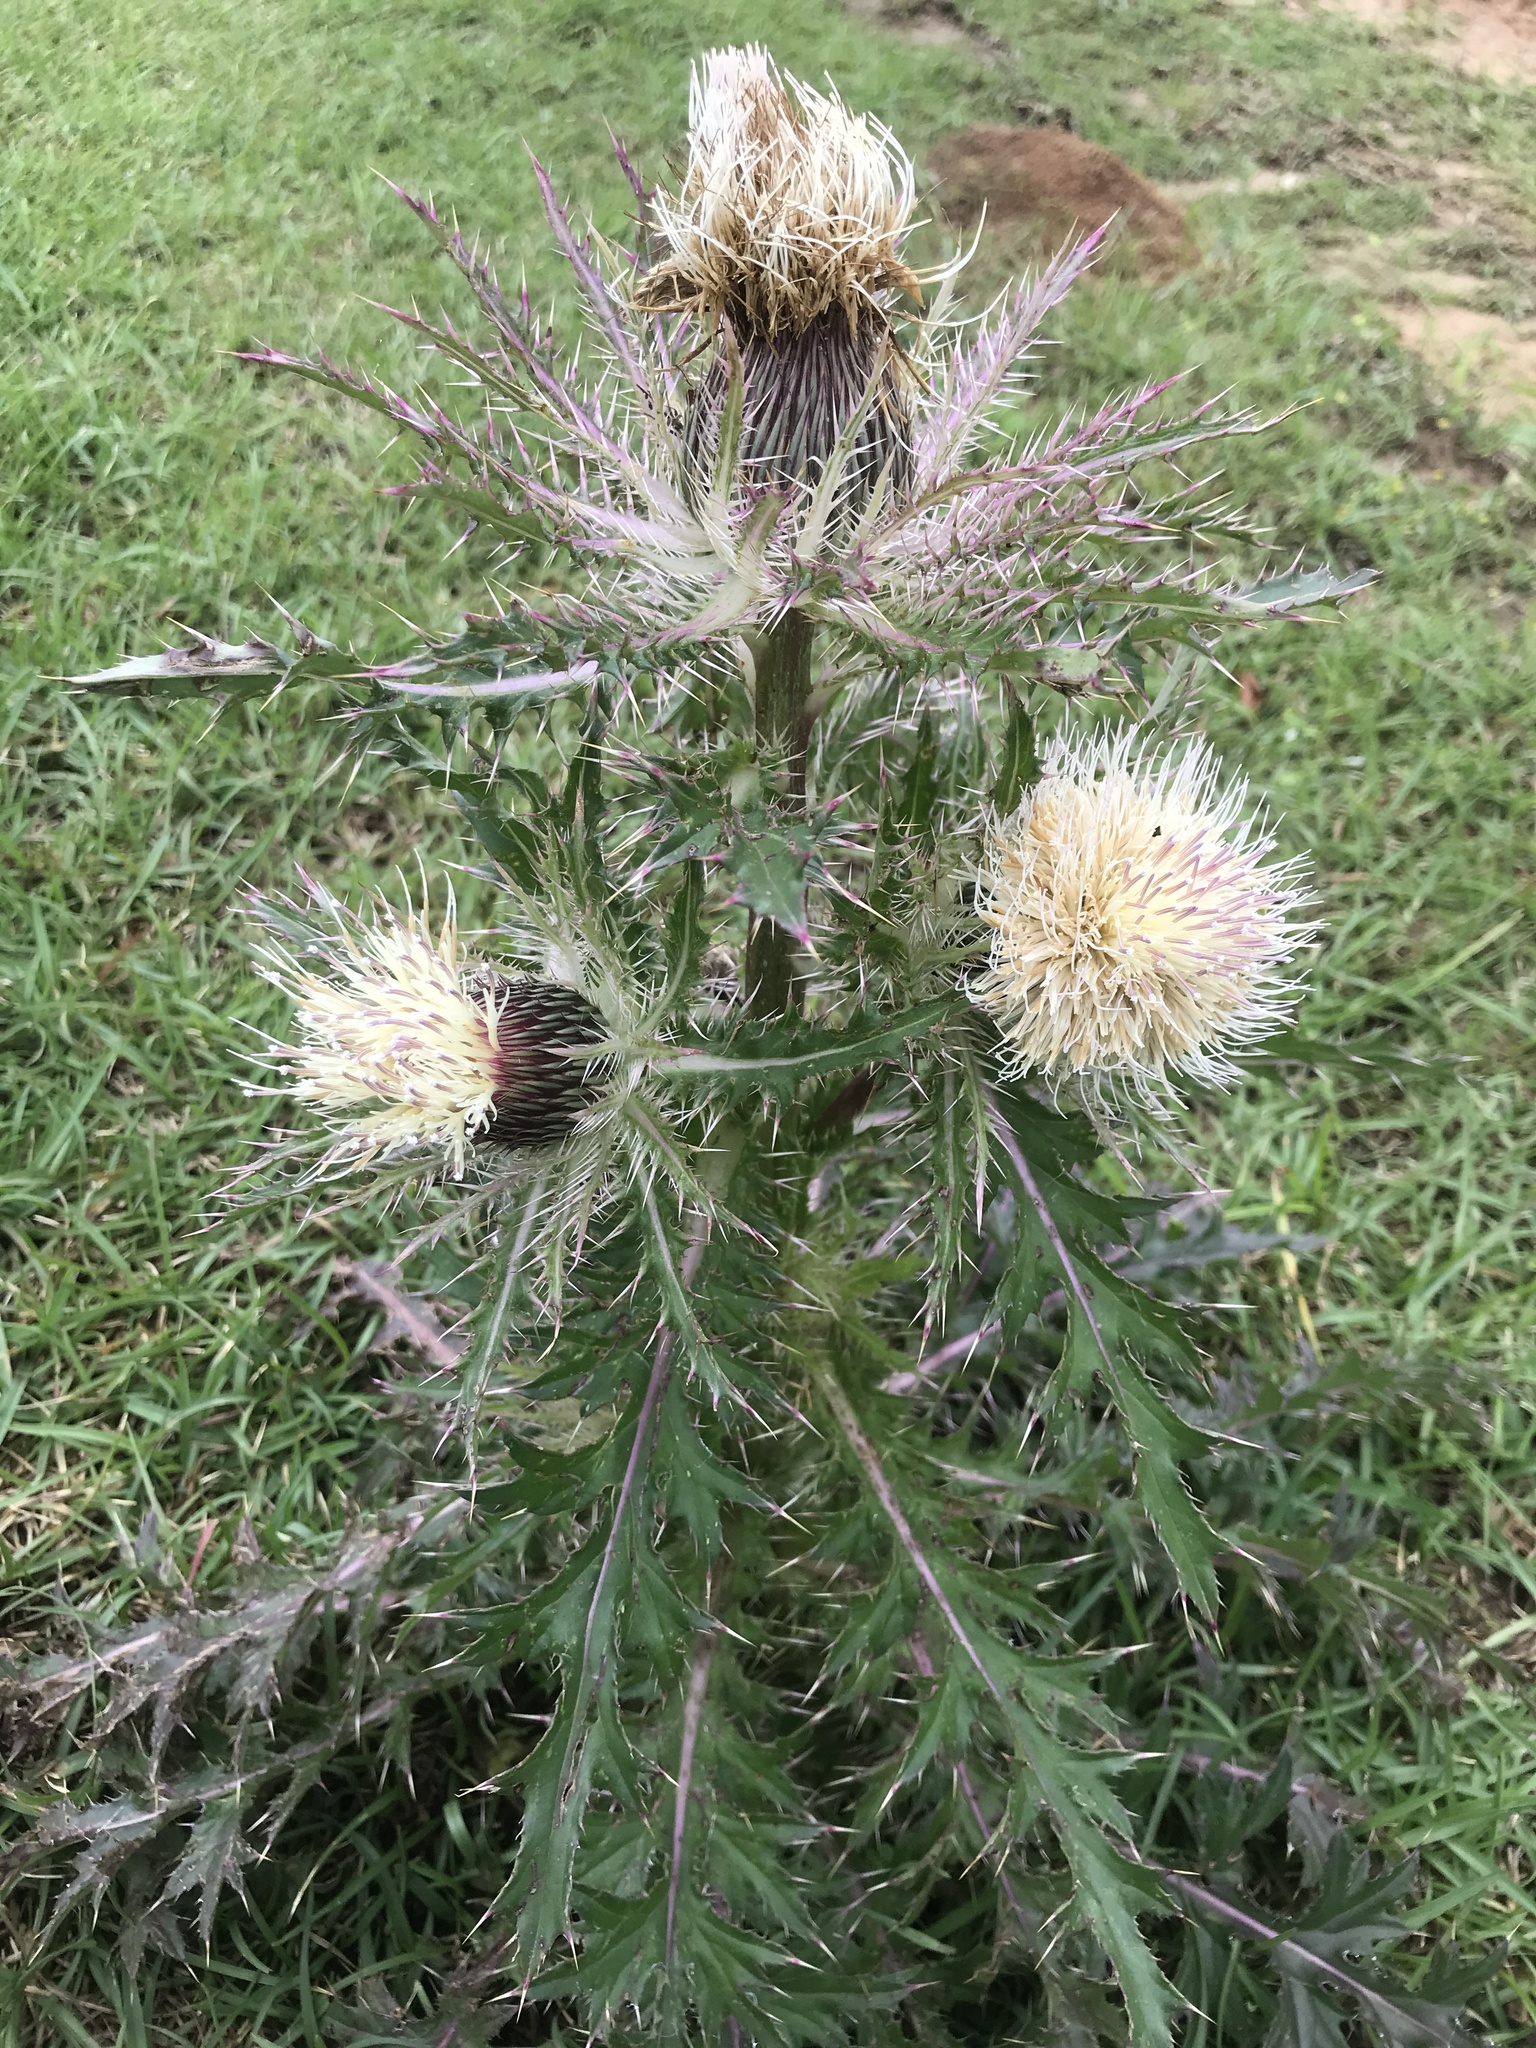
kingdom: Plantae
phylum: Tracheophyta
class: Magnoliopsida
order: Asterales
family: Asteraceae
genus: Cirsium
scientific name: Cirsium horridulum
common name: Bristly thistle
